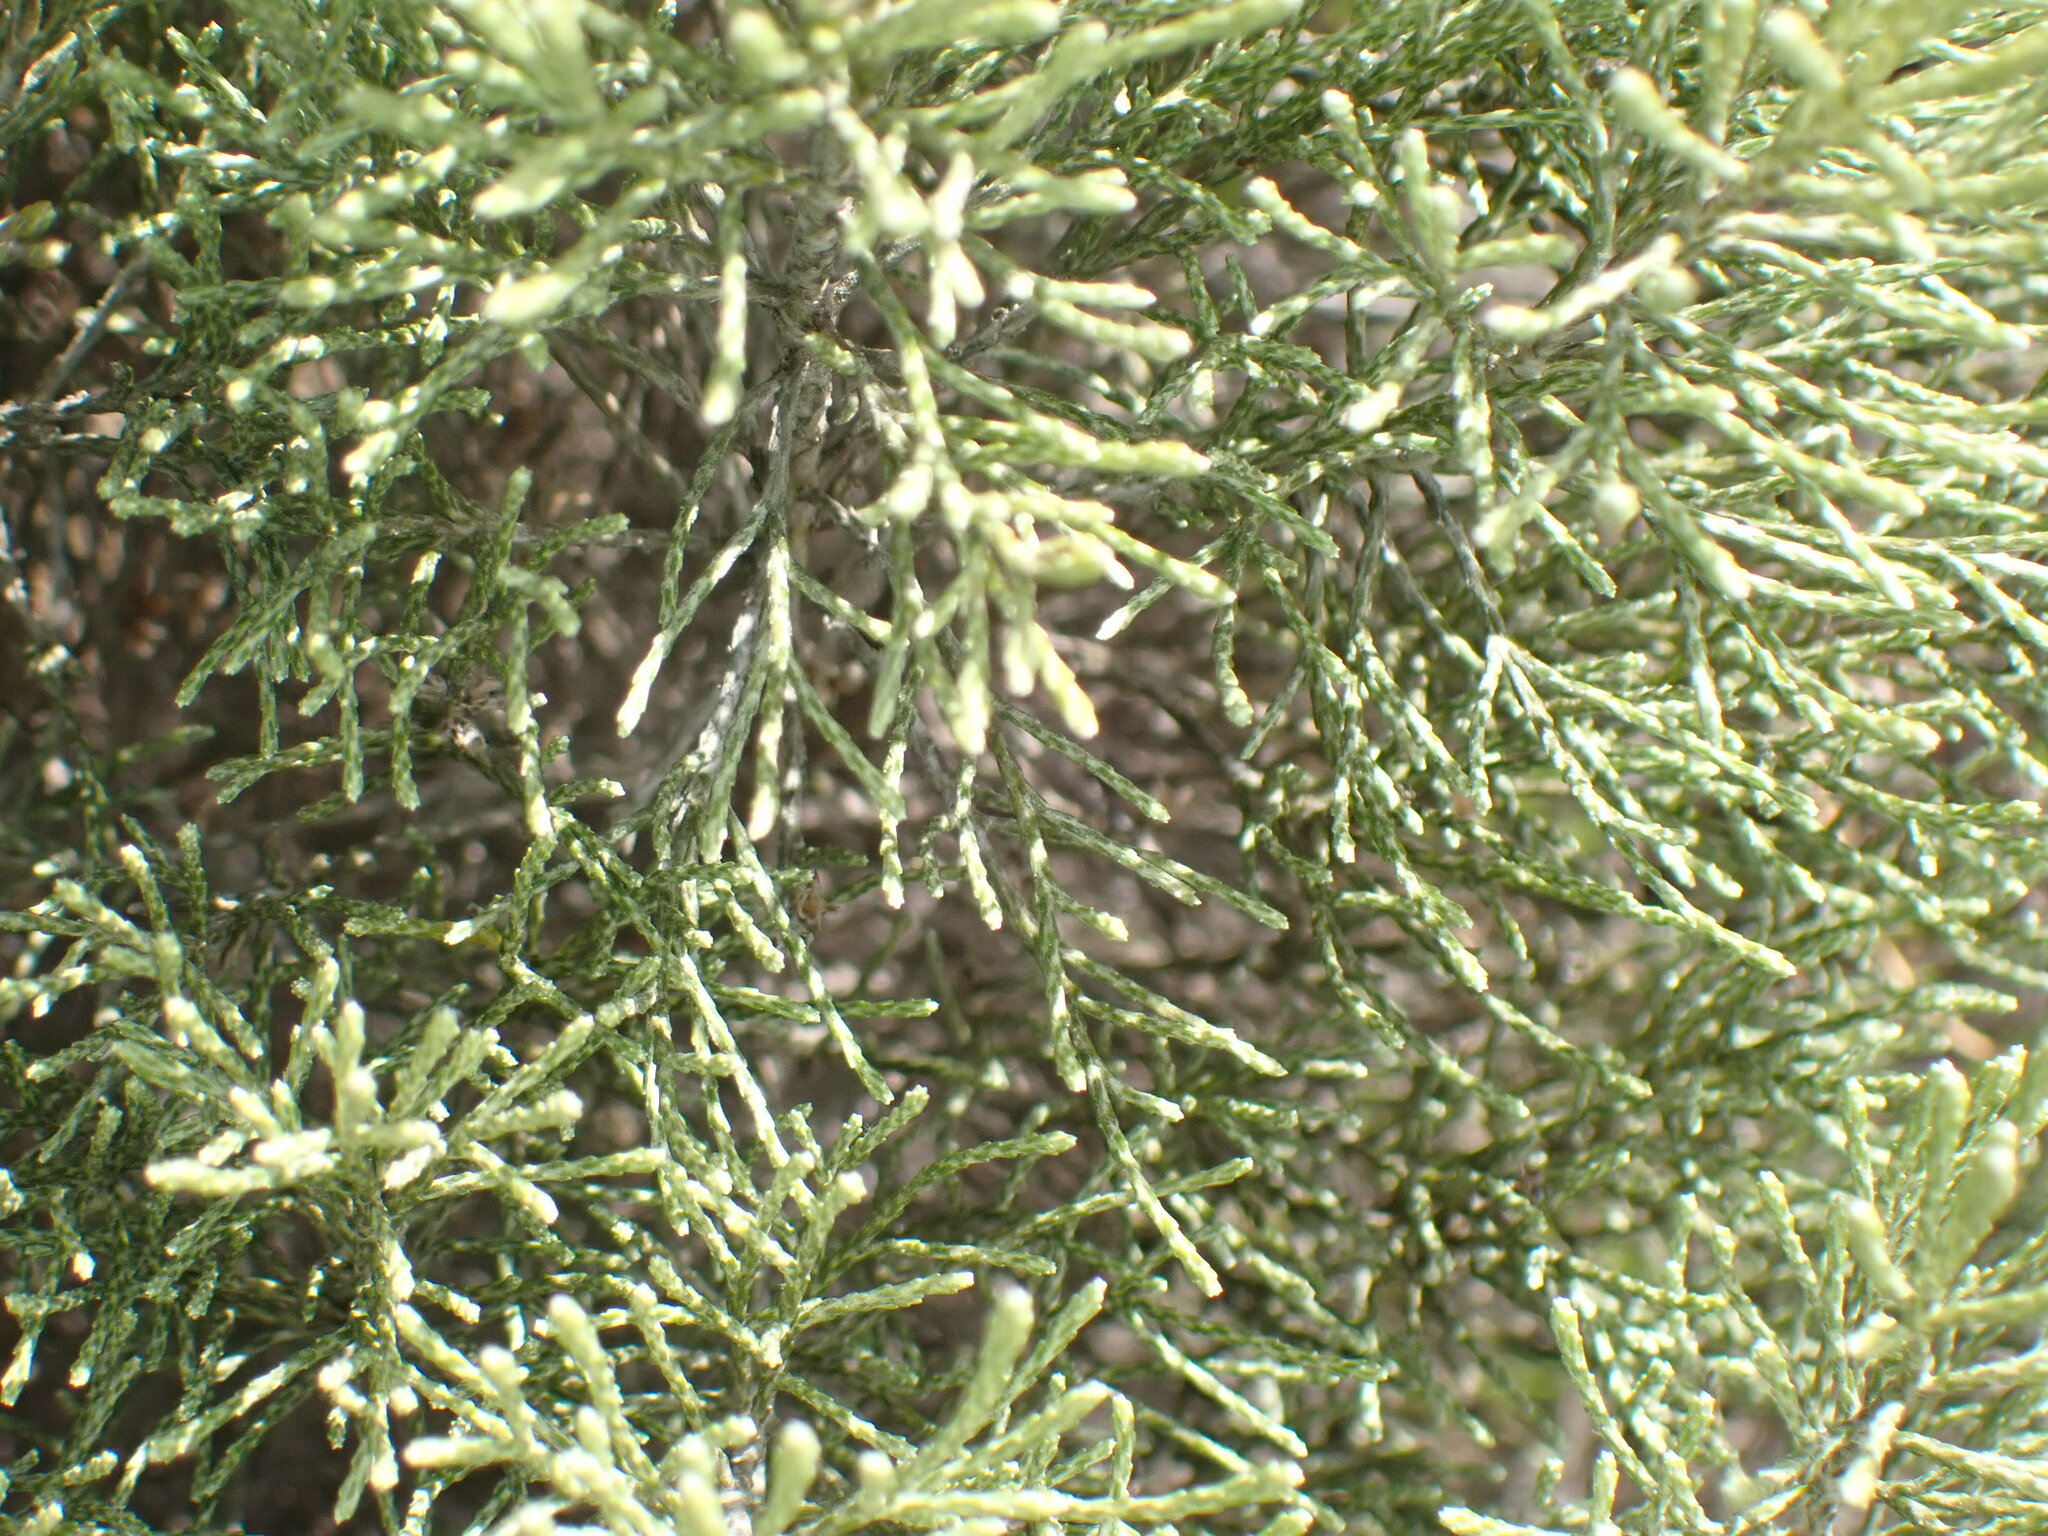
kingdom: Plantae
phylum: Tracheophyta
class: Magnoliopsida
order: Asterales
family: Asteraceae
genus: Dicerothamnus
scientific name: Dicerothamnus rhinocerotis
